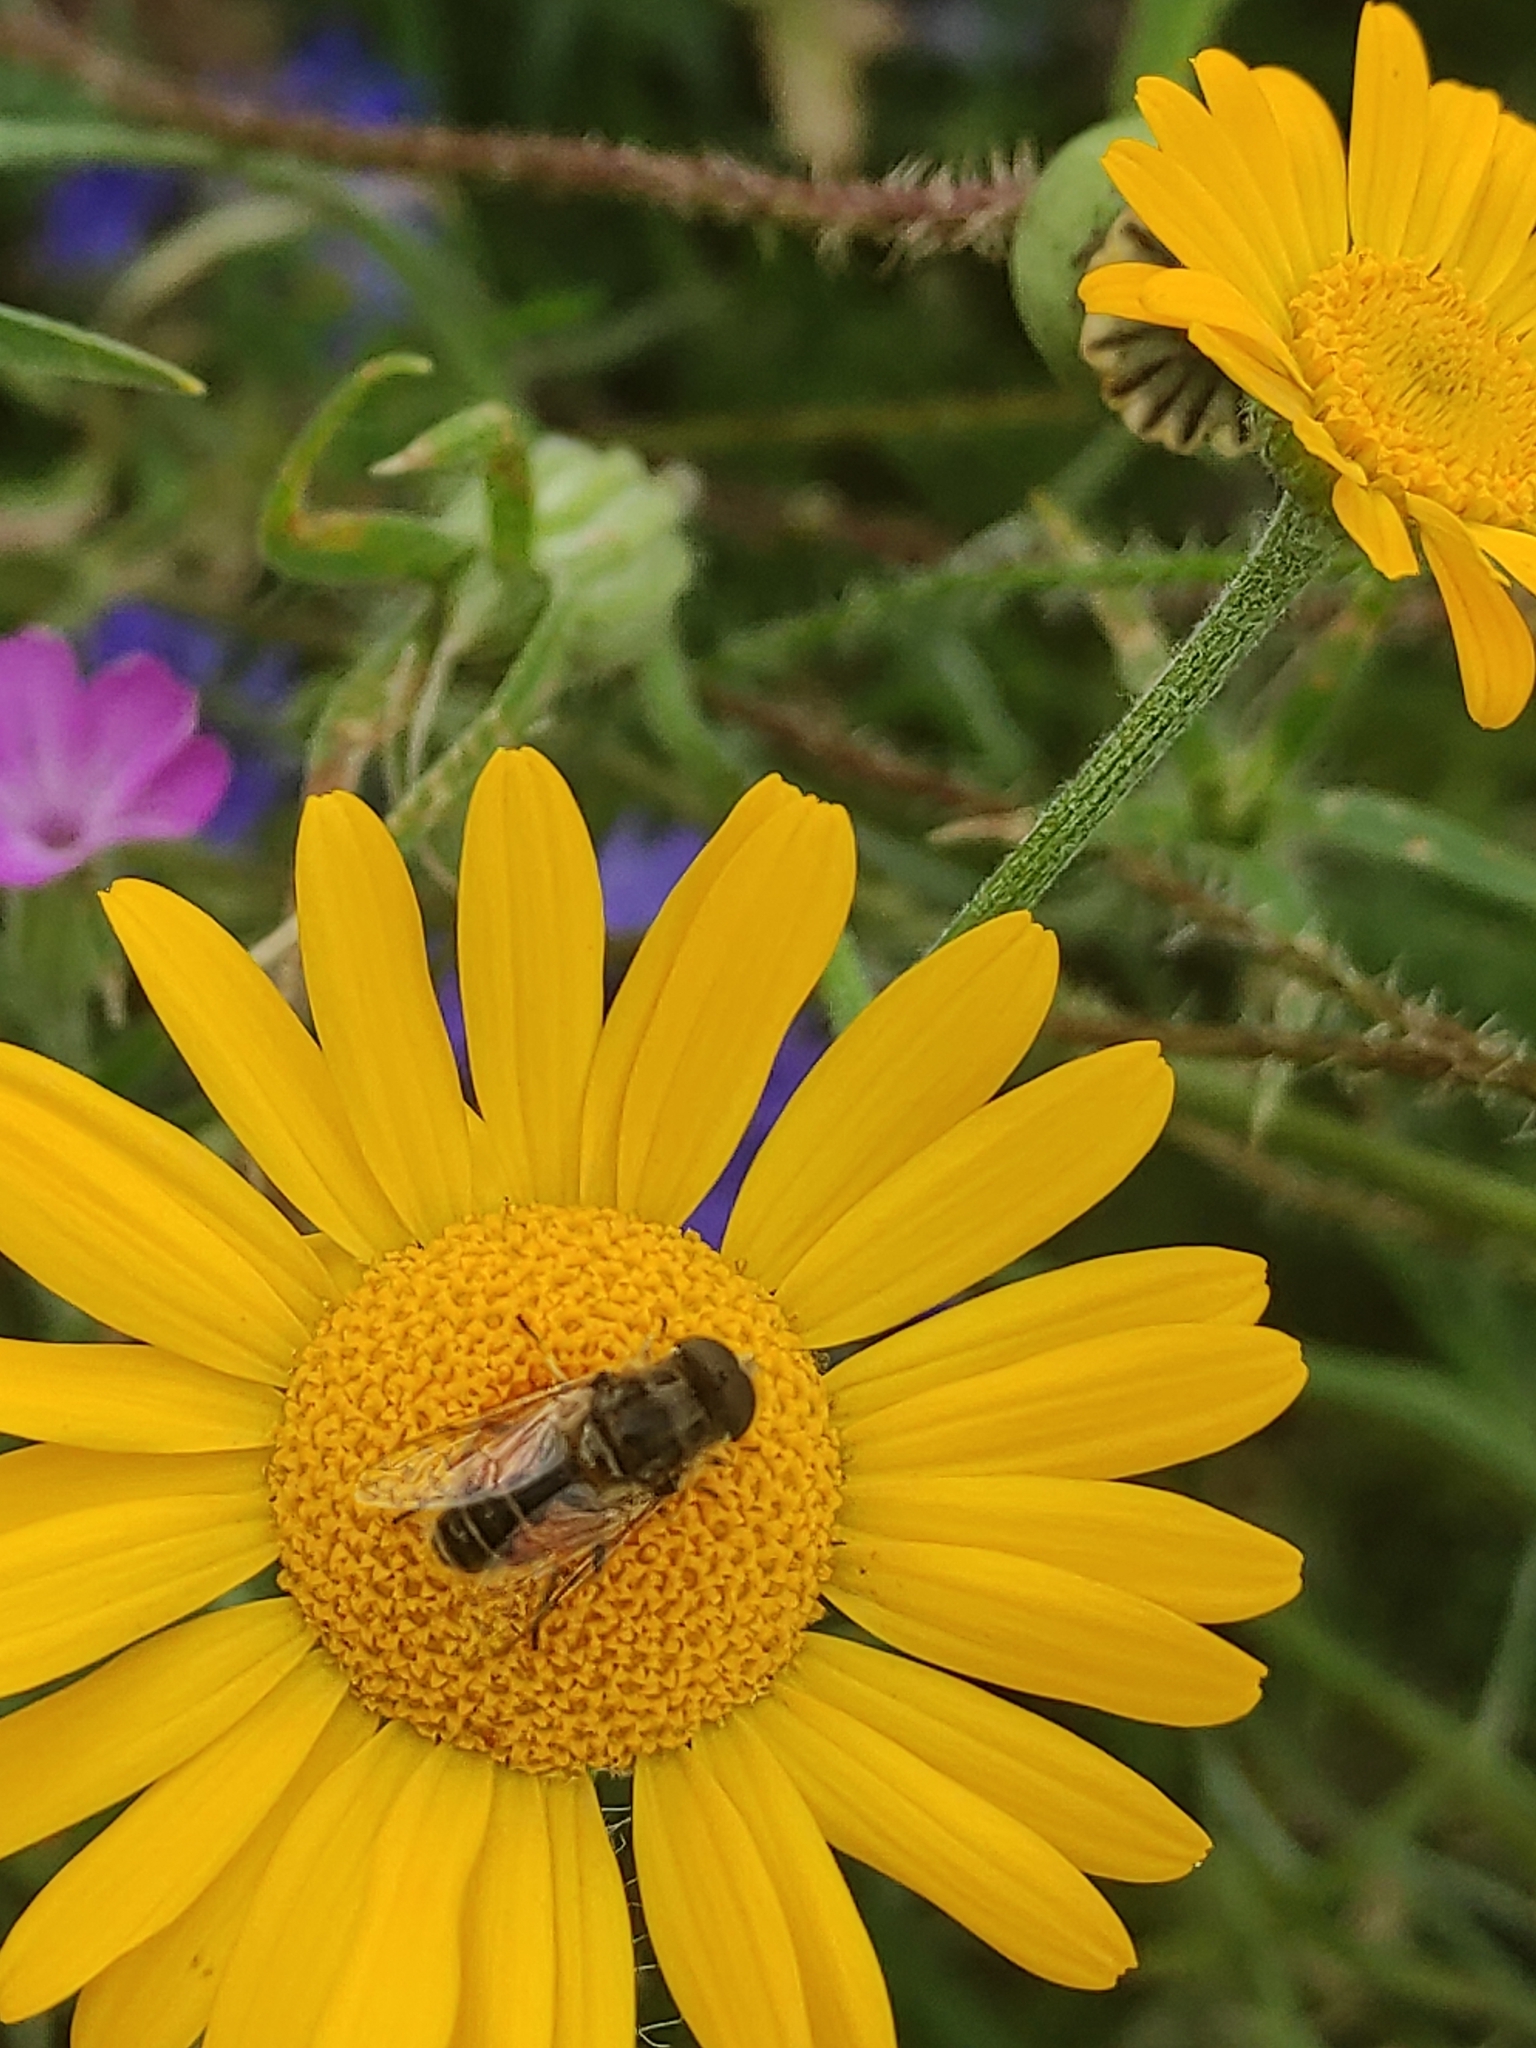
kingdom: Animalia
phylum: Arthropoda
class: Insecta
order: Diptera
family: Syrphidae
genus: Eristalis
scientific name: Eristalis arbustorum
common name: Hover fly
